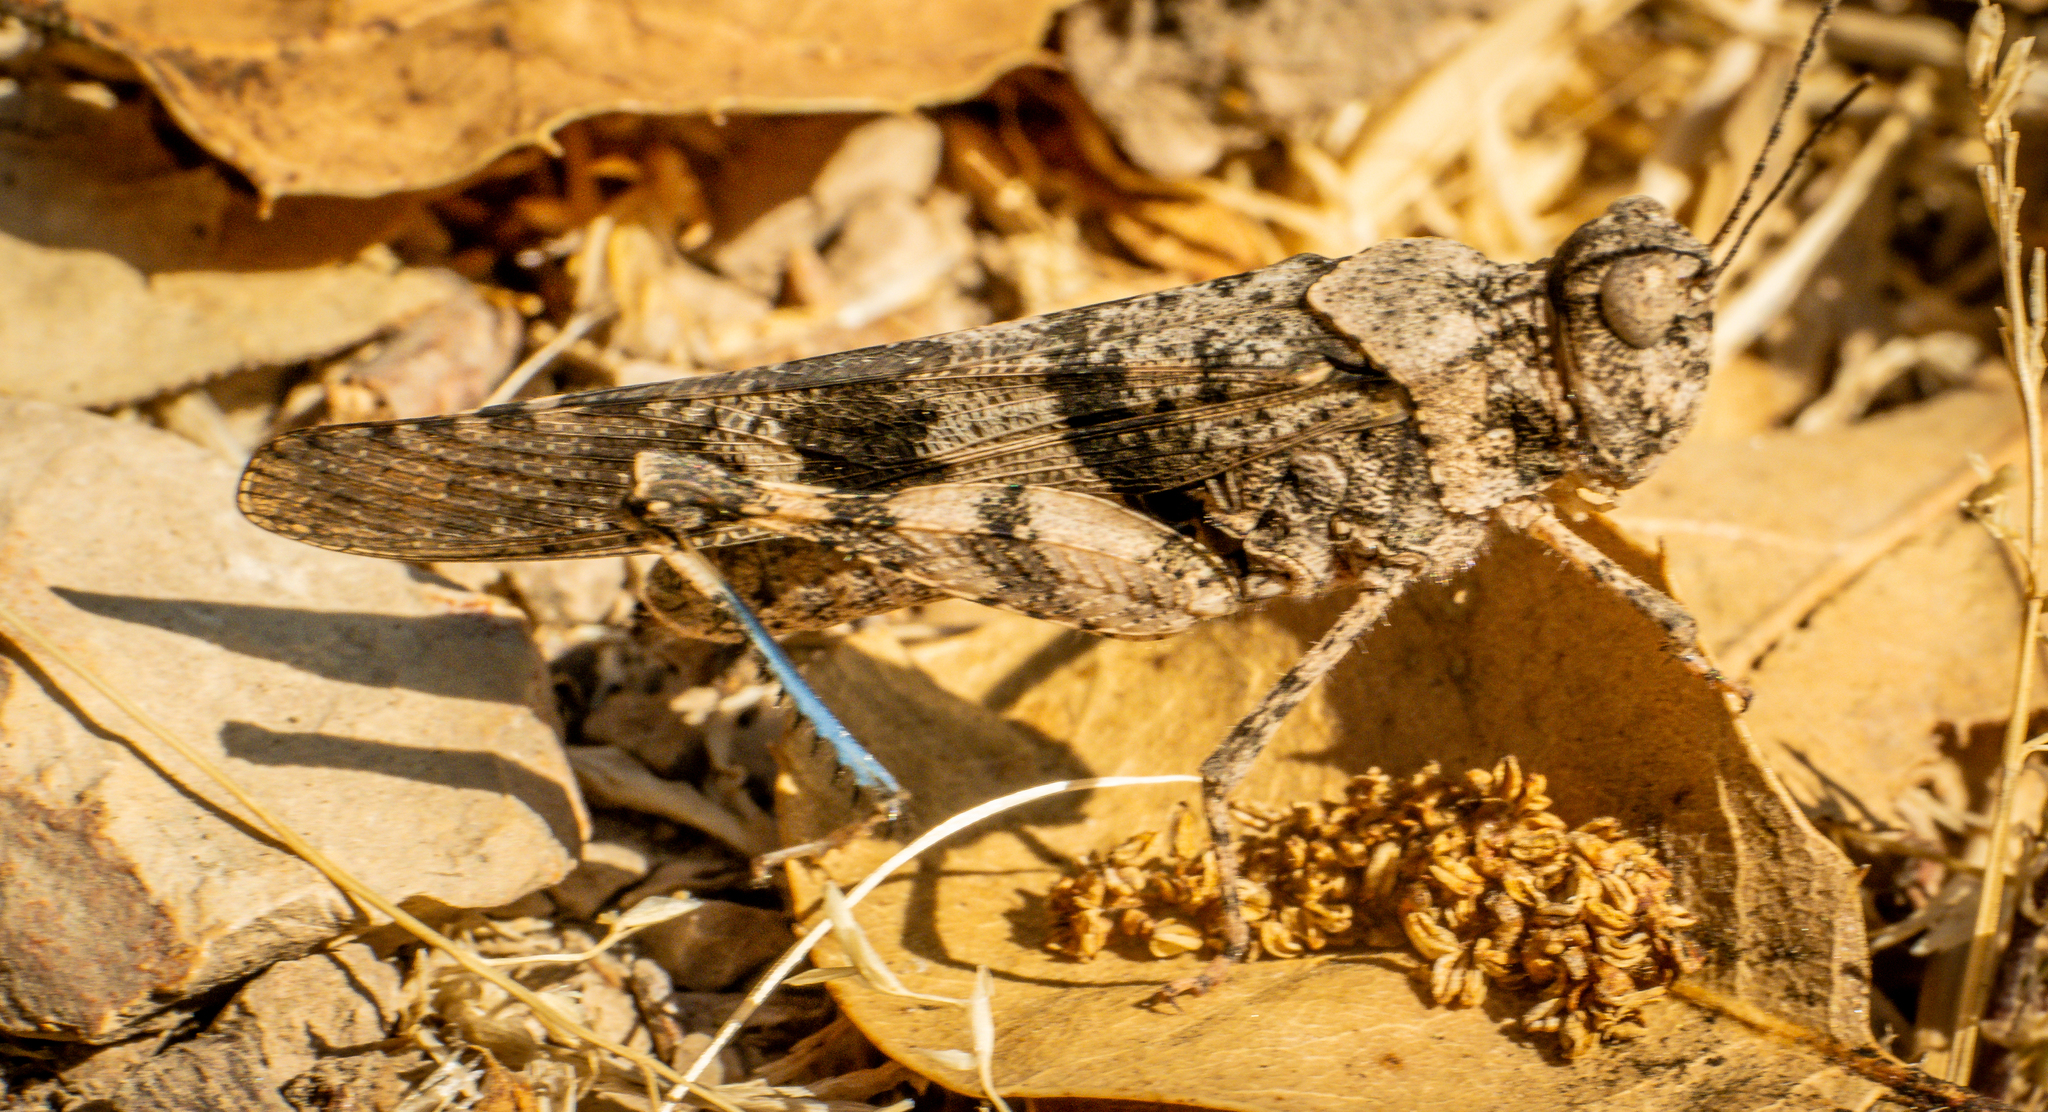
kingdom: Animalia
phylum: Arthropoda
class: Insecta
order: Orthoptera
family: Acrididae
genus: Trimerotropis
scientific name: Trimerotropis fontana
